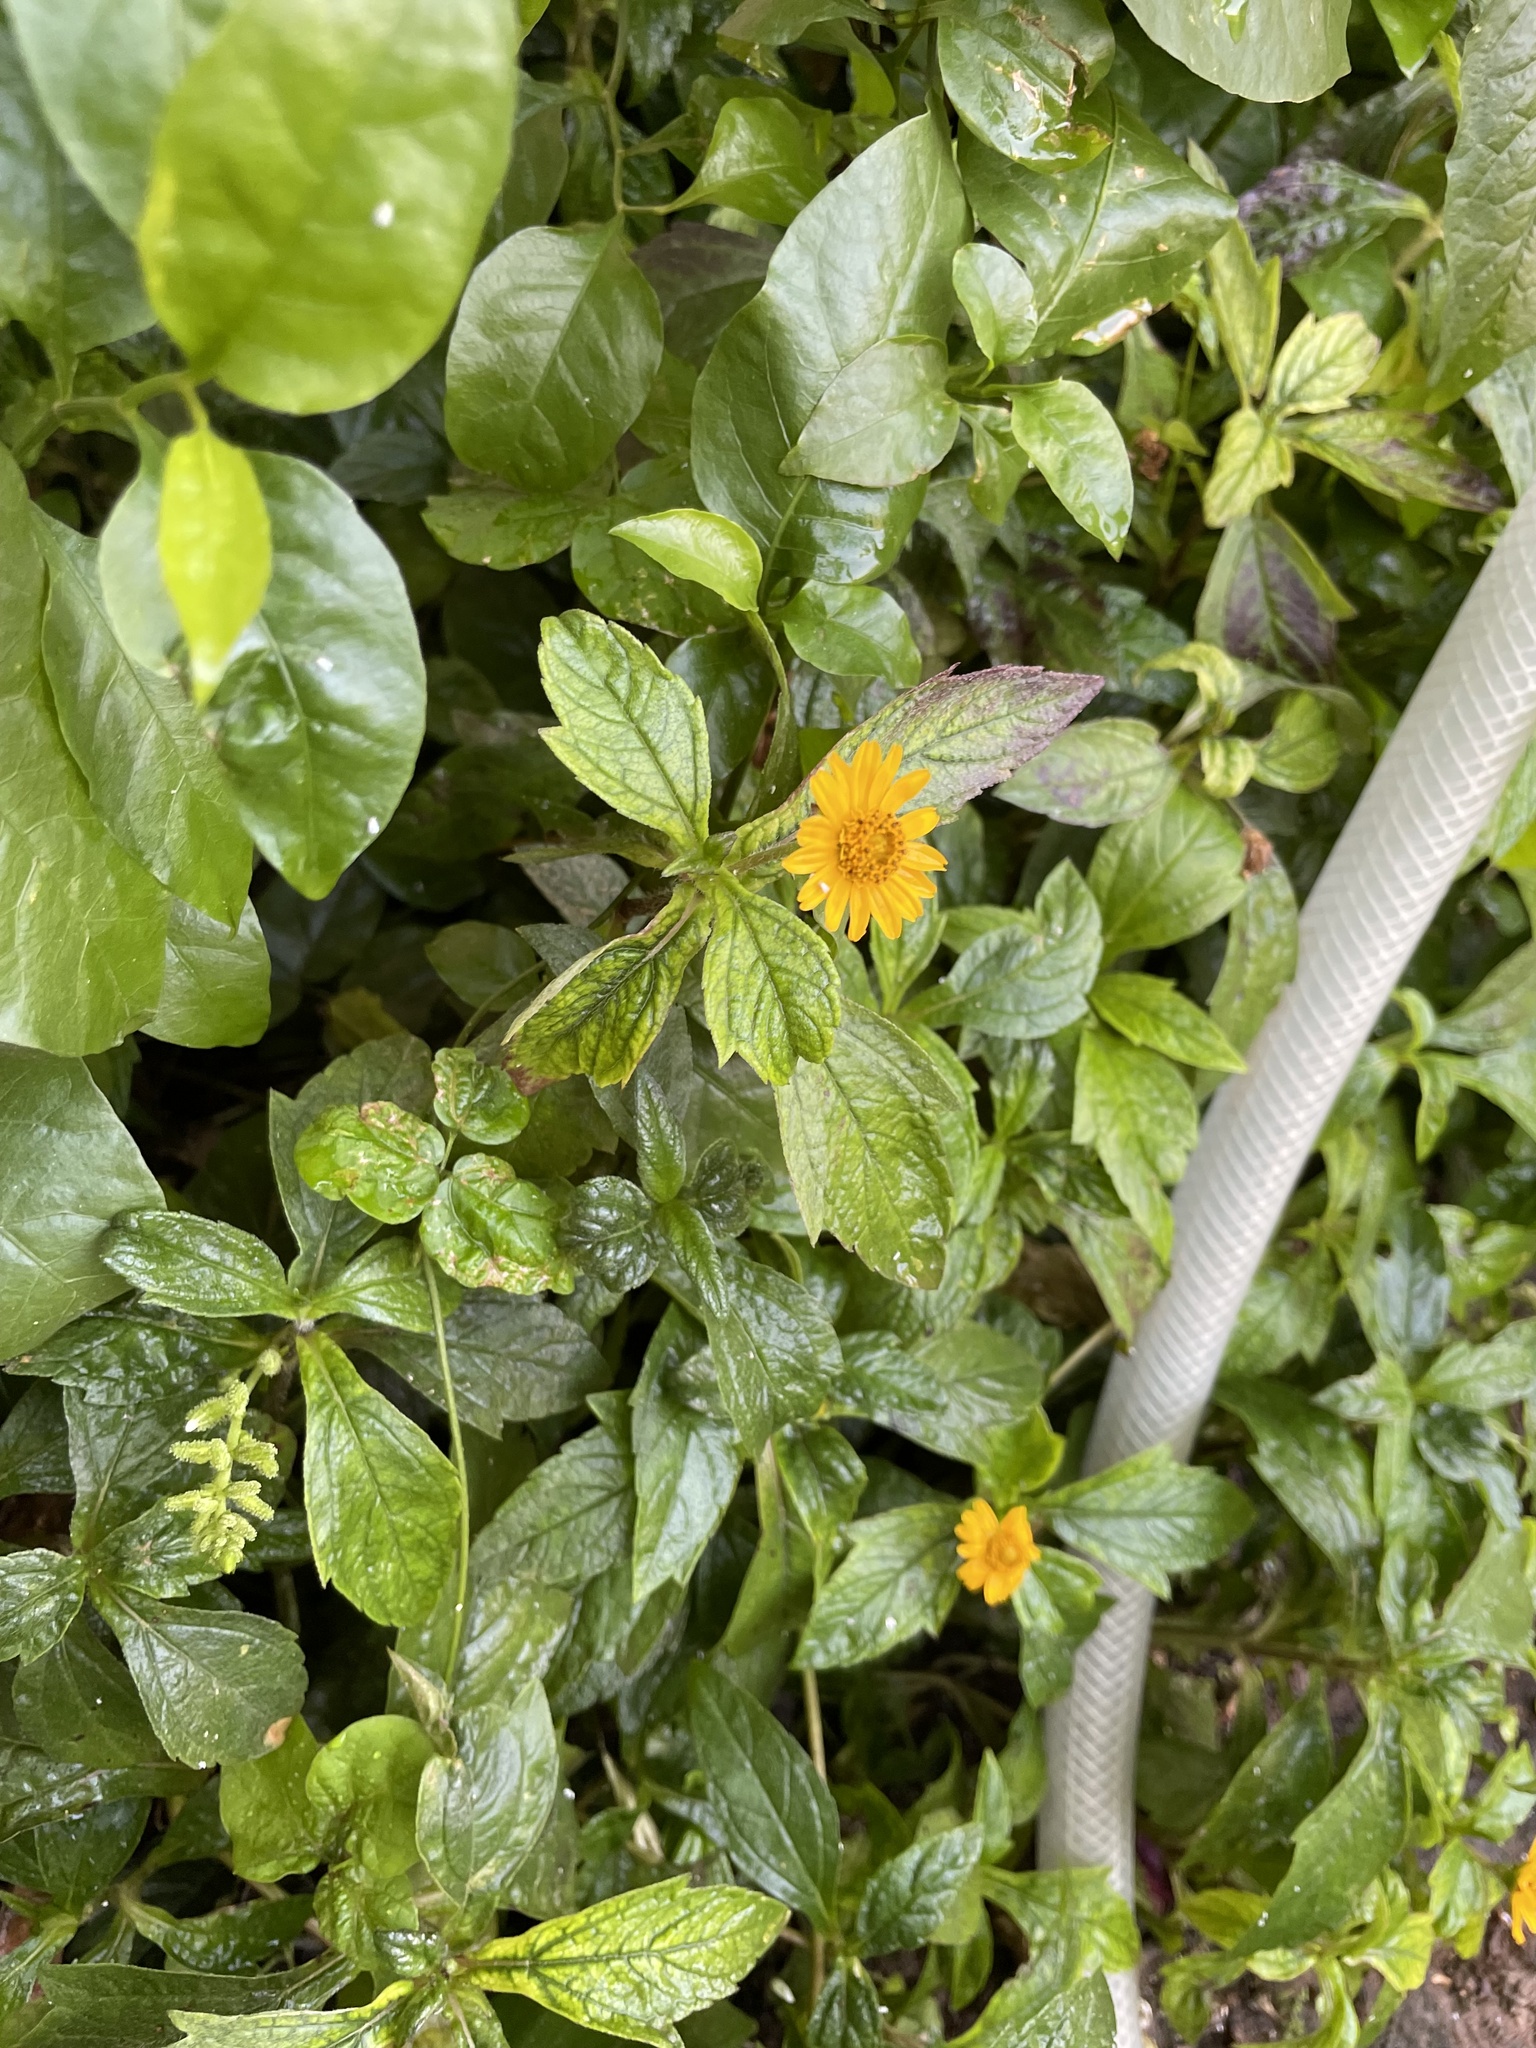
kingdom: Plantae
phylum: Tracheophyta
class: Magnoliopsida
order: Asterales
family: Asteraceae
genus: Sphagneticola
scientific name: Sphagneticola trilobata
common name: Bay biscayne creeping-oxeye
